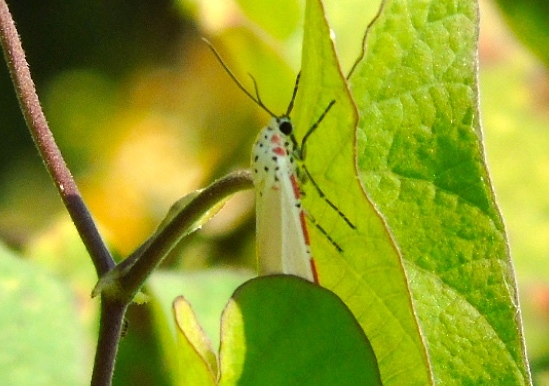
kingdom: Animalia
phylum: Arthropoda
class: Insecta
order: Lepidoptera
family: Erebidae
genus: Utetheisa
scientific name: Utetheisa ornatrix
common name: Beautiful utetheisa
